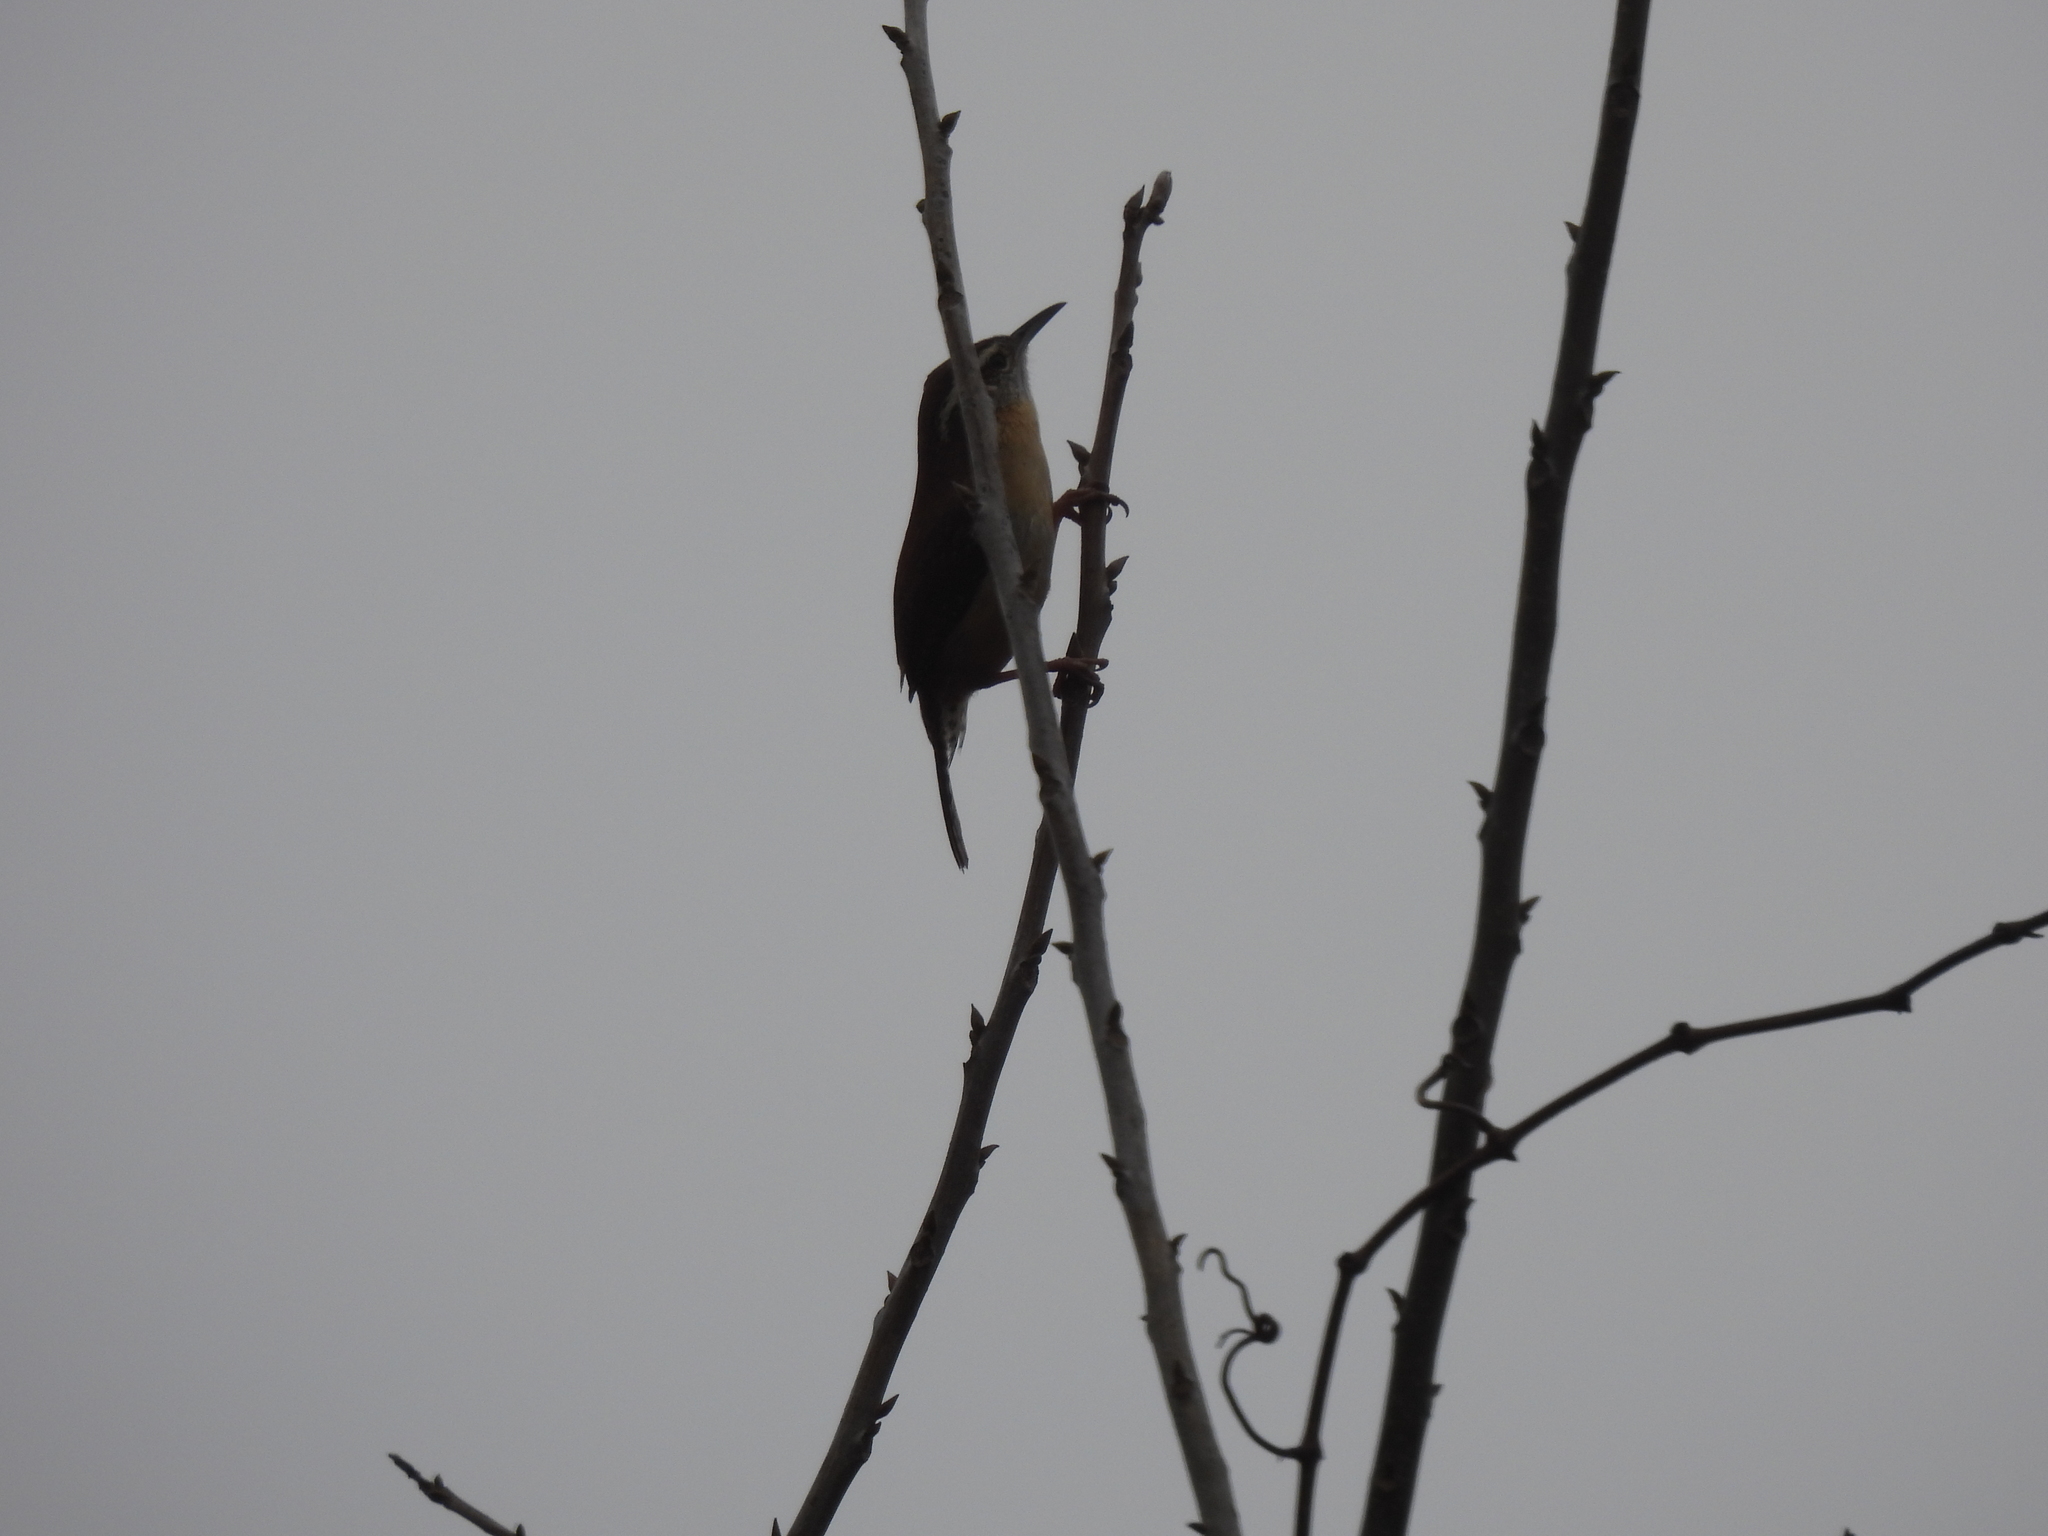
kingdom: Animalia
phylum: Chordata
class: Aves
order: Passeriformes
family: Troglodytidae
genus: Thryothorus
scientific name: Thryothorus ludovicianus
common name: Carolina wren
